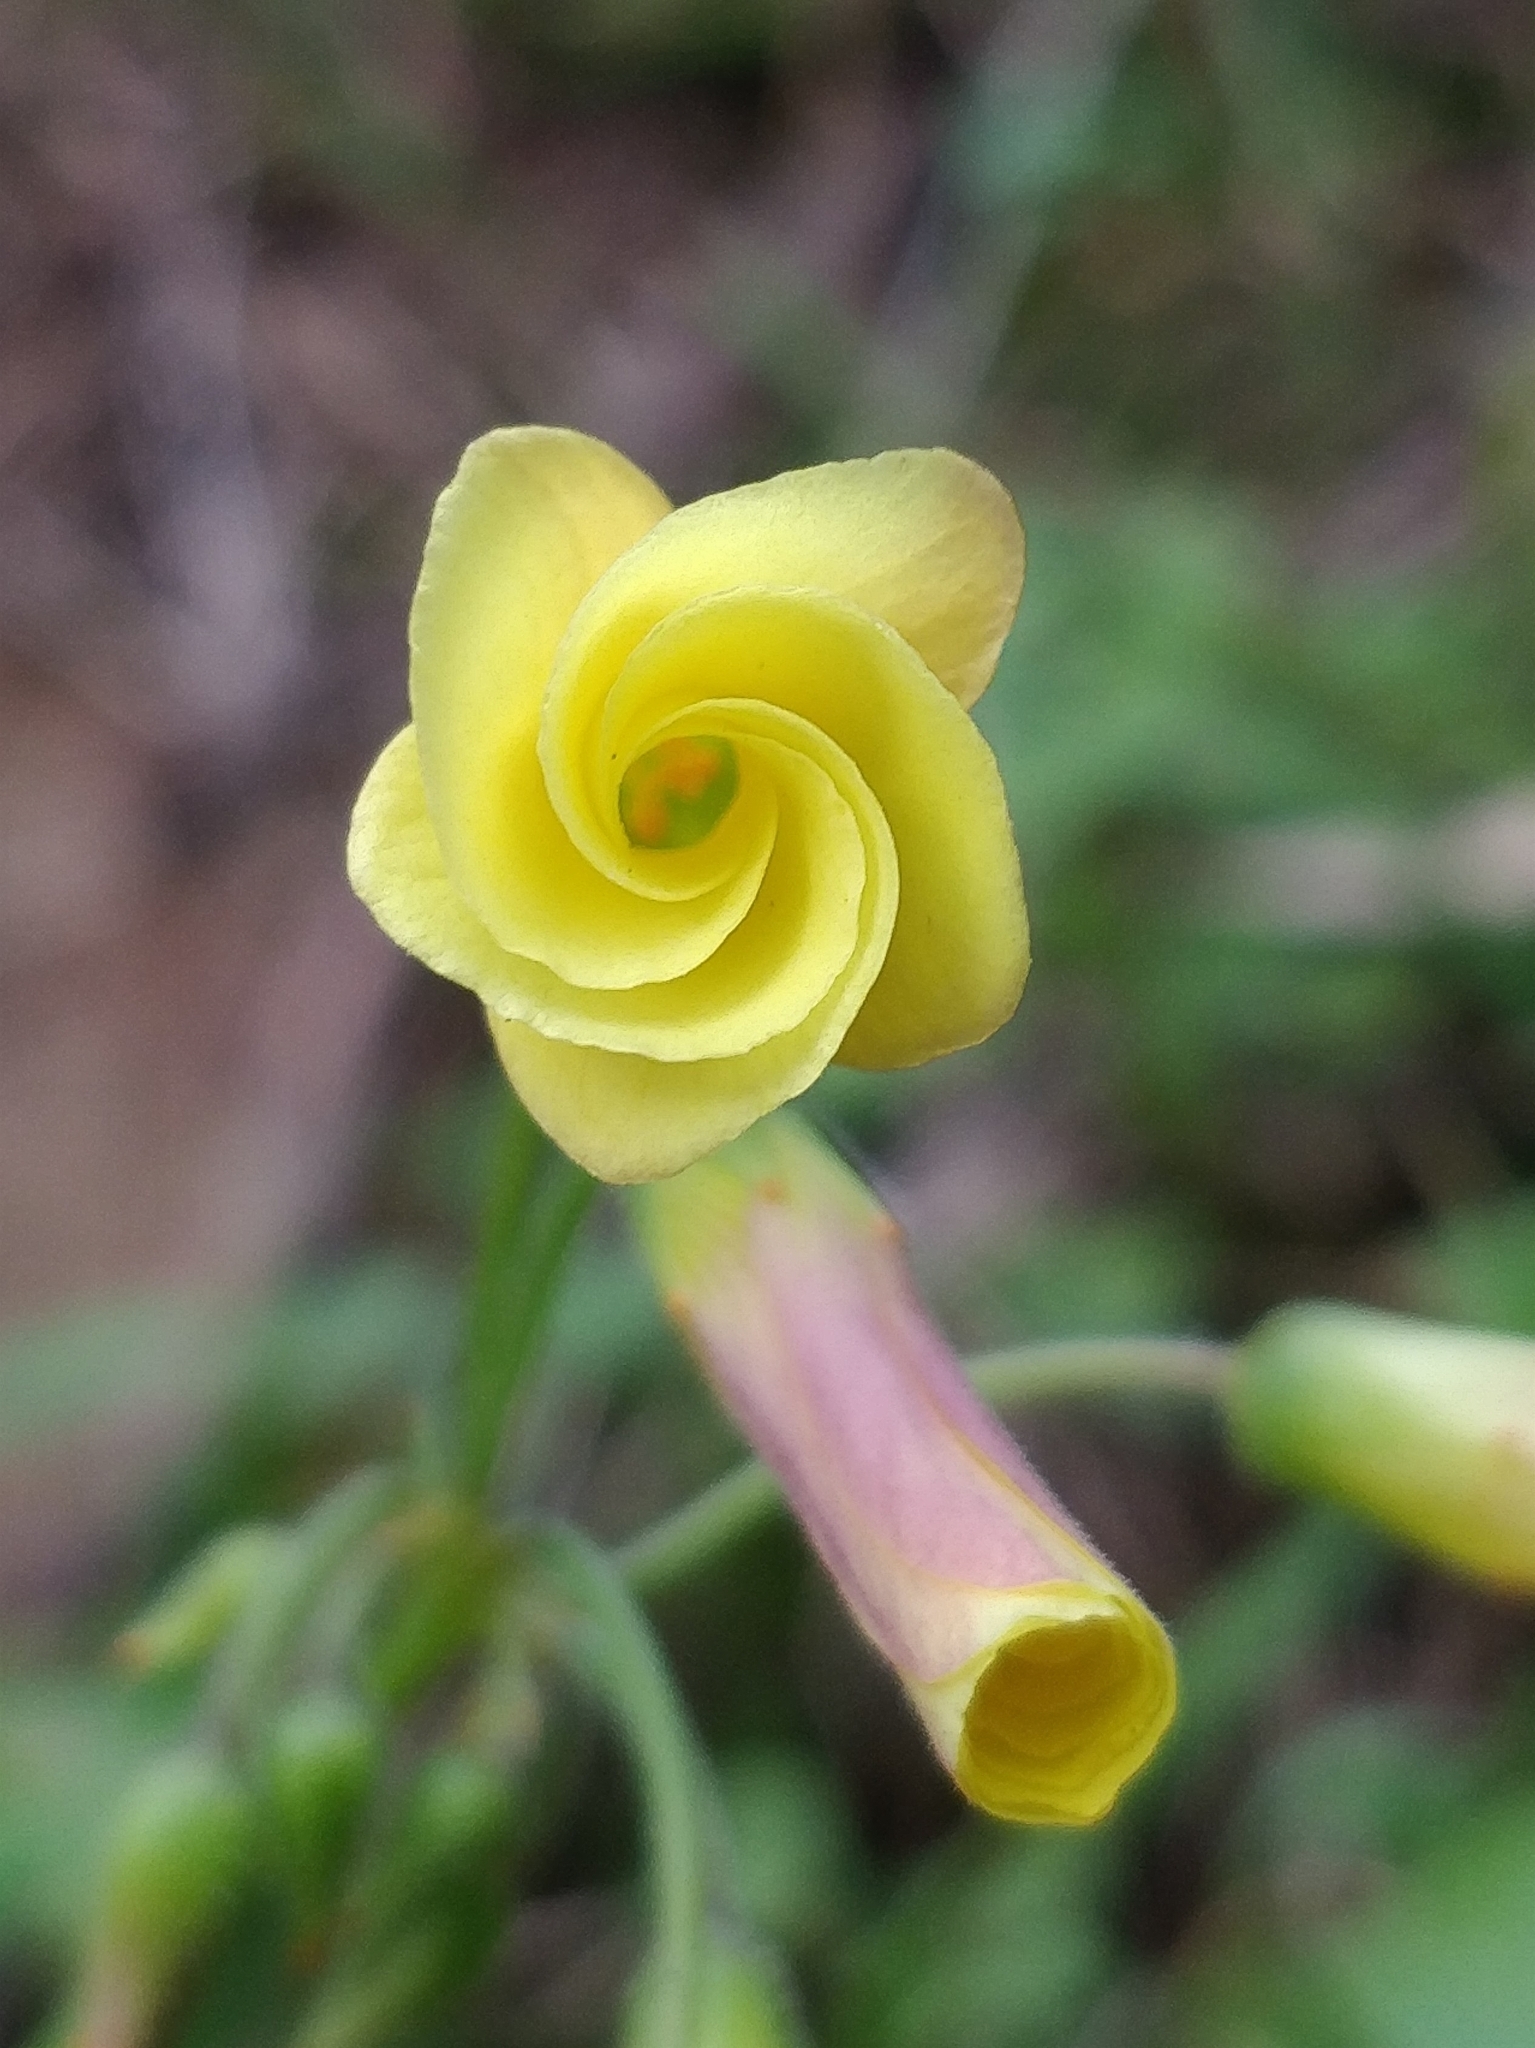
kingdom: Plantae
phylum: Tracheophyta
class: Magnoliopsida
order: Oxalidales
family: Oxalidaceae
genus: Oxalis
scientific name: Oxalis pes-caprae
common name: Bermuda-buttercup
